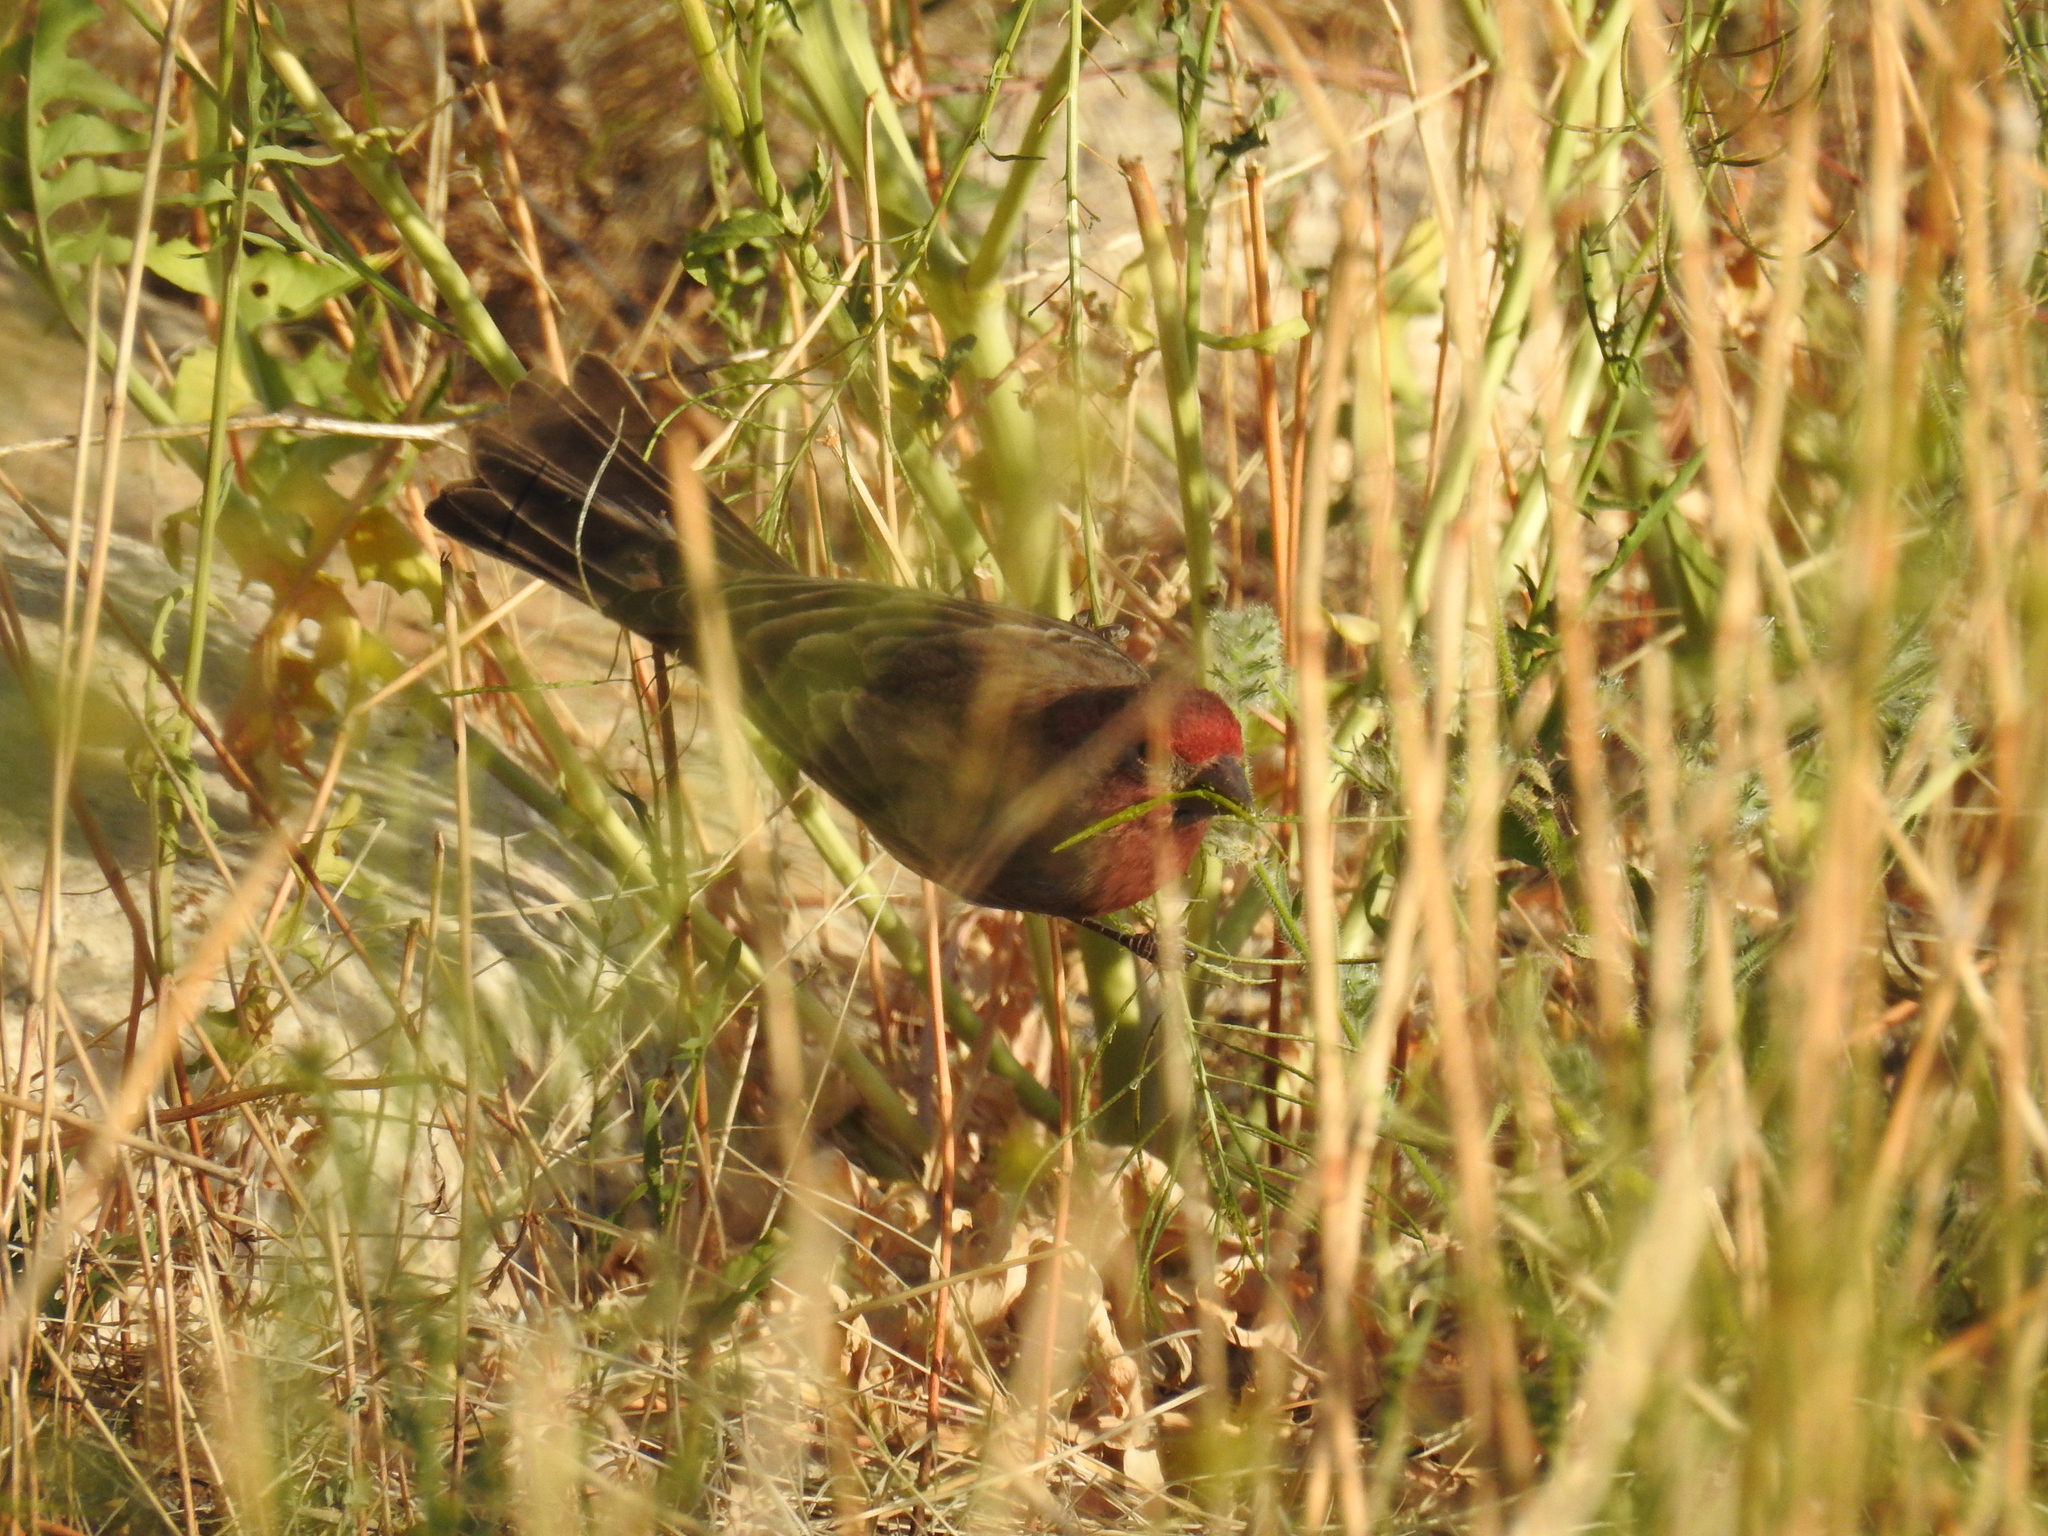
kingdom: Animalia
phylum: Chordata
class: Aves
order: Passeriformes
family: Fringillidae
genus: Haemorhous
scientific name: Haemorhous mexicanus
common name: House finch
